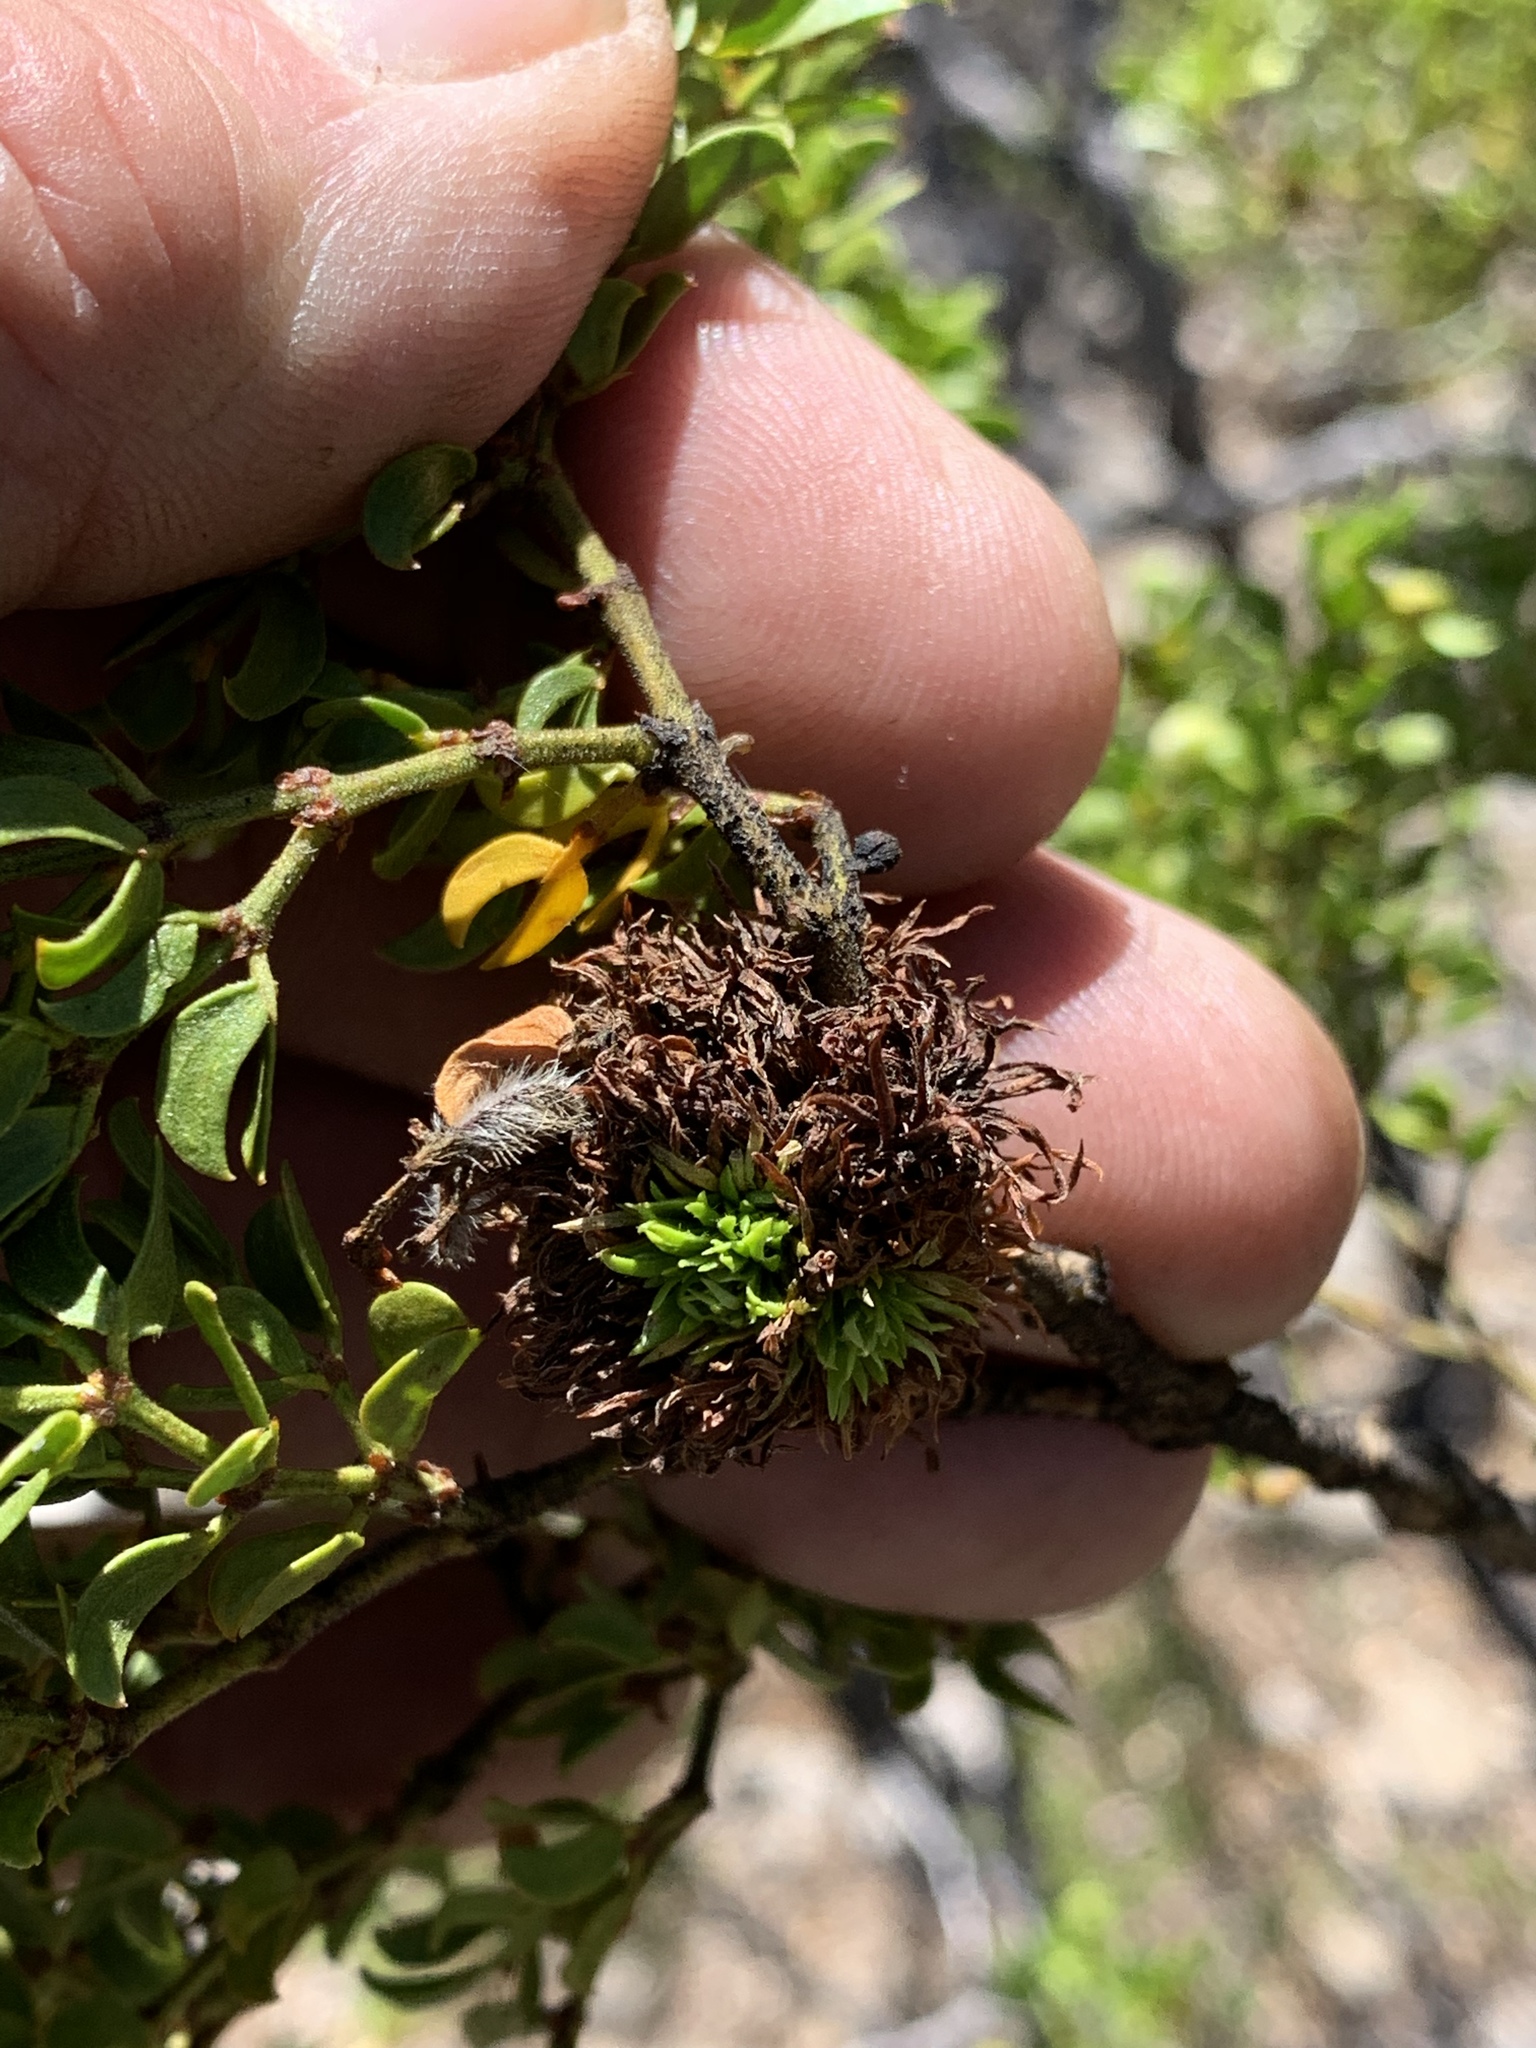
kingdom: Animalia
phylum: Arthropoda
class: Insecta
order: Diptera
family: Cecidomyiidae
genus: Asphondylia
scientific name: Asphondylia auripila
